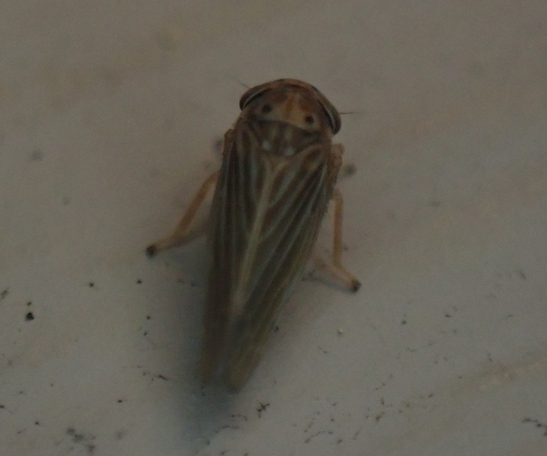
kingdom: Animalia
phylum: Arthropoda
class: Insecta
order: Hemiptera
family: Cicadellidae
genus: Agallia
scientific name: Agallia constricta
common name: The constricted leafhopper
